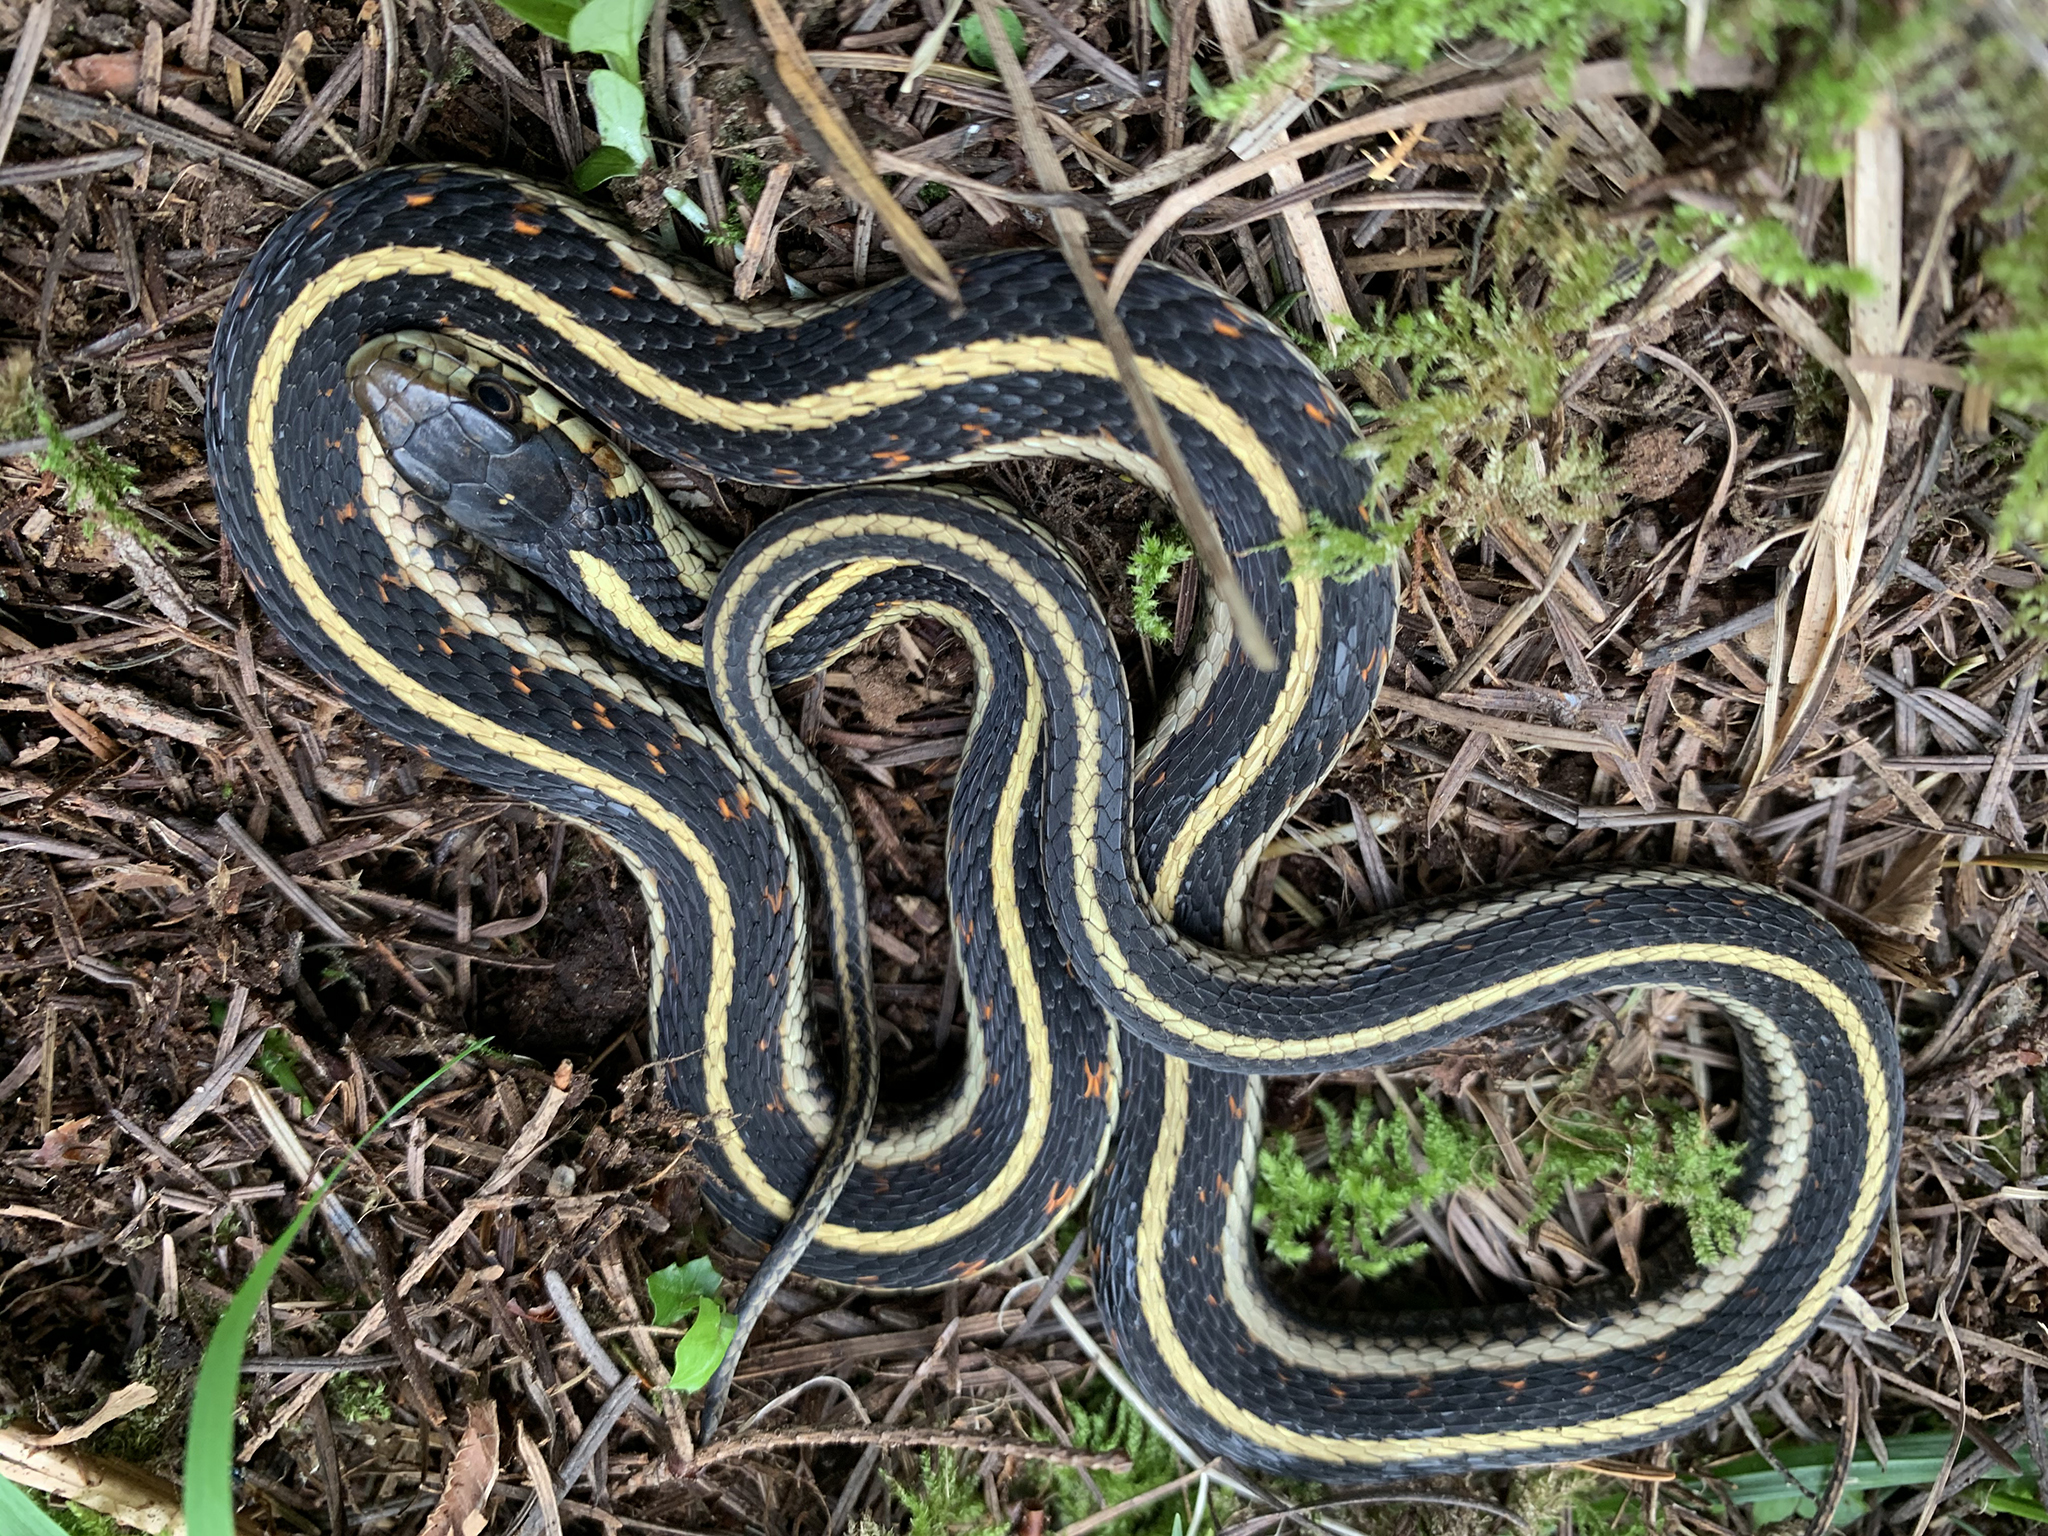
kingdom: Animalia
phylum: Chordata
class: Squamata
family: Colubridae
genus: Thamnophis
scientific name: Thamnophis sirtalis
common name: Common garter snake
